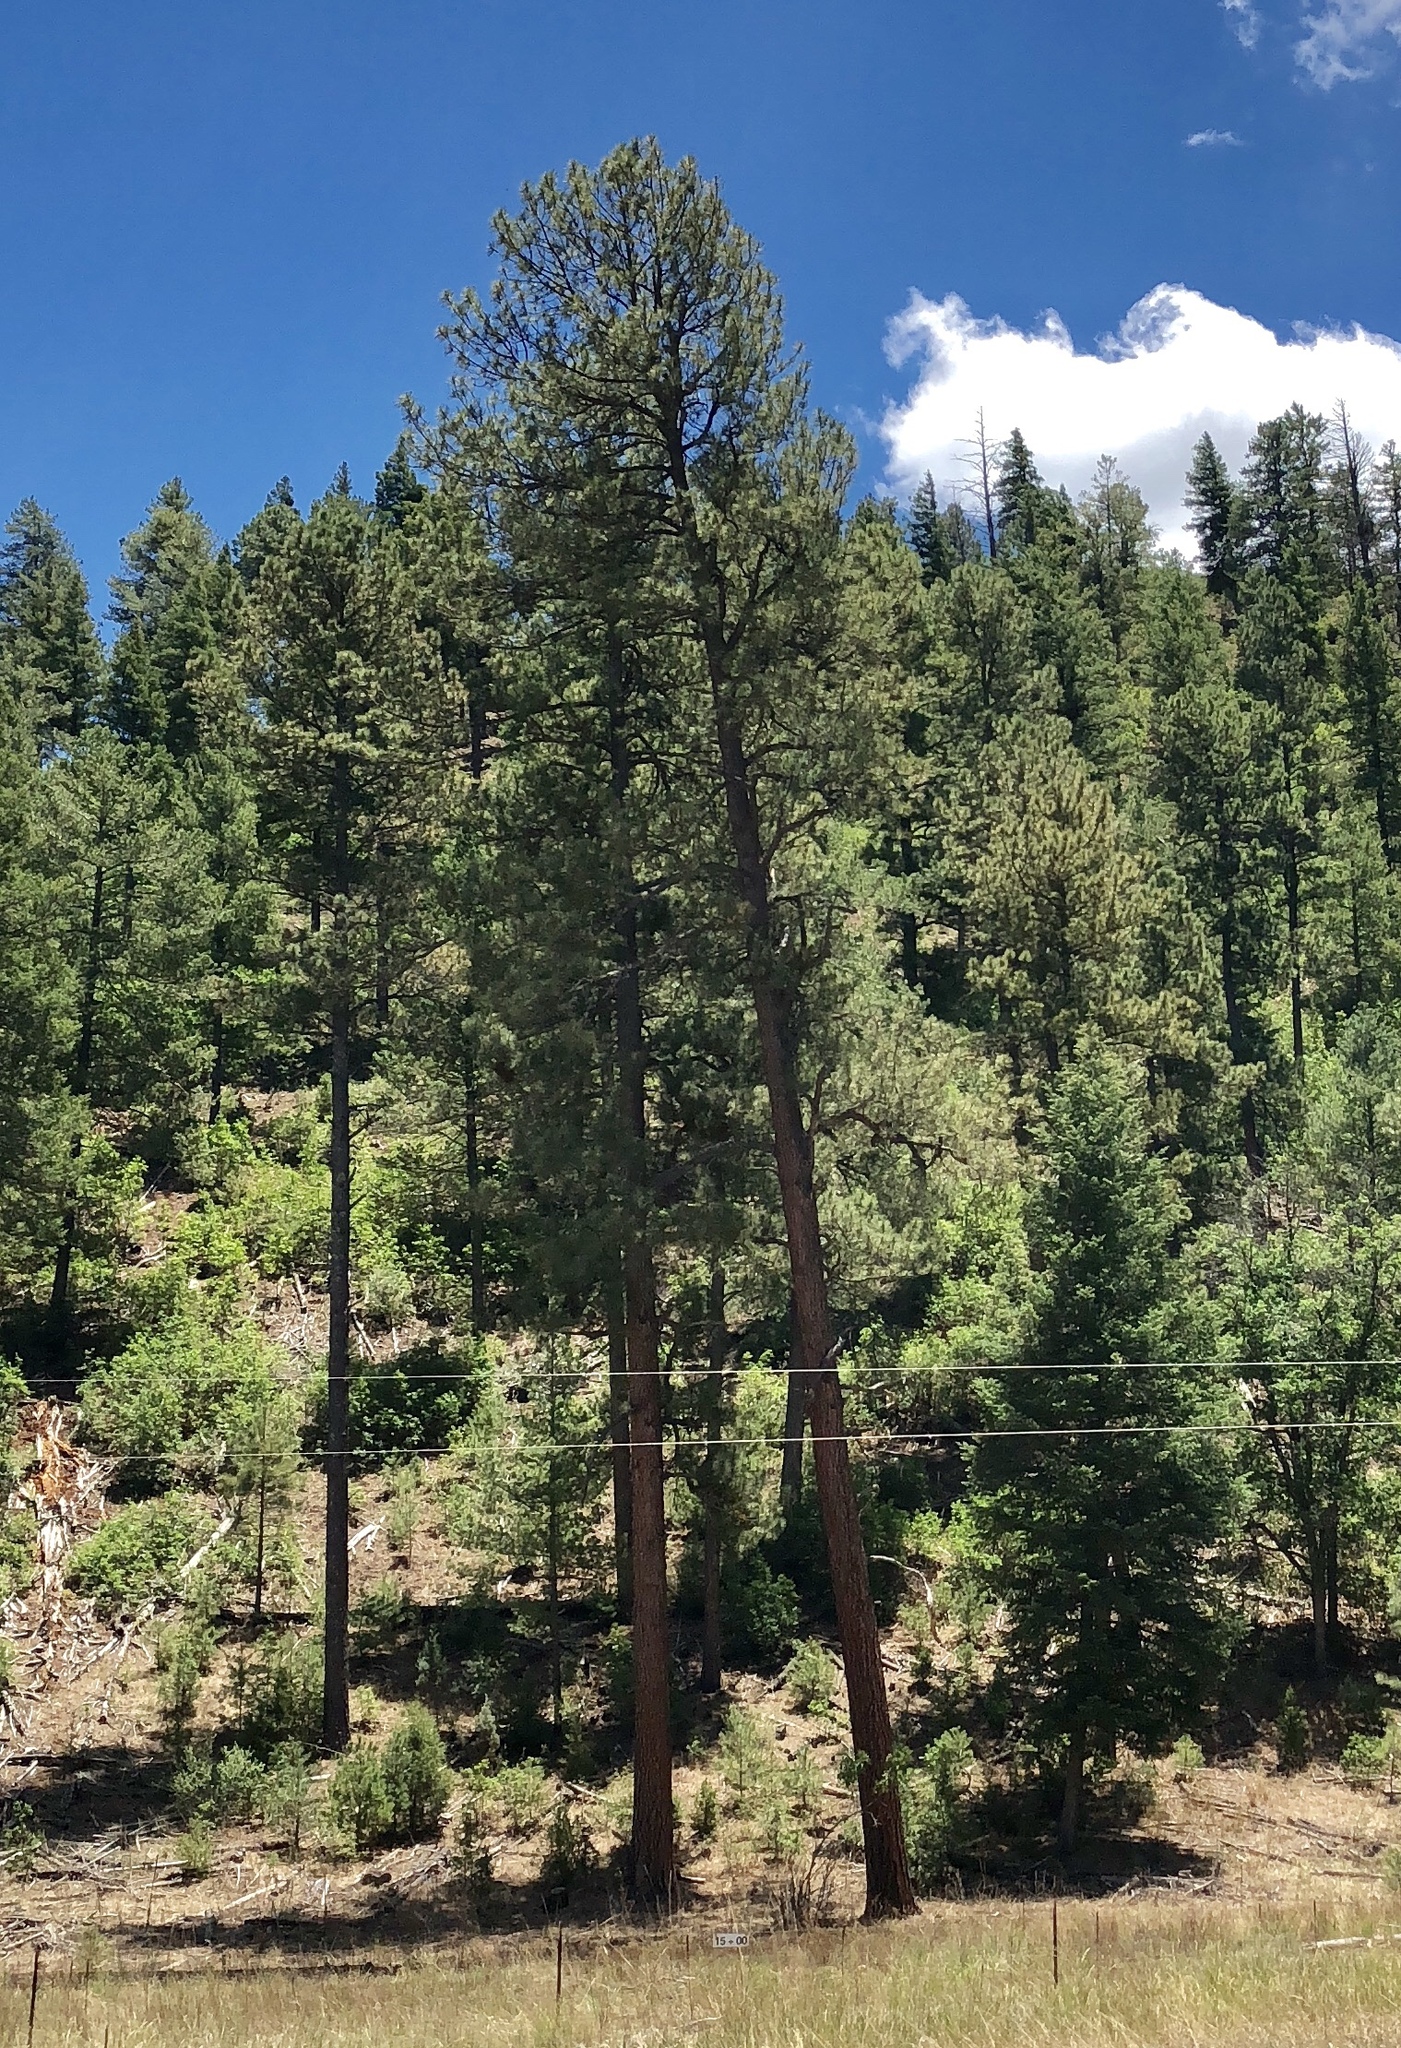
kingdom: Plantae
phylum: Tracheophyta
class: Pinopsida
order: Pinales
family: Pinaceae
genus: Pinus
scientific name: Pinus ponderosa
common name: Western yellow-pine
